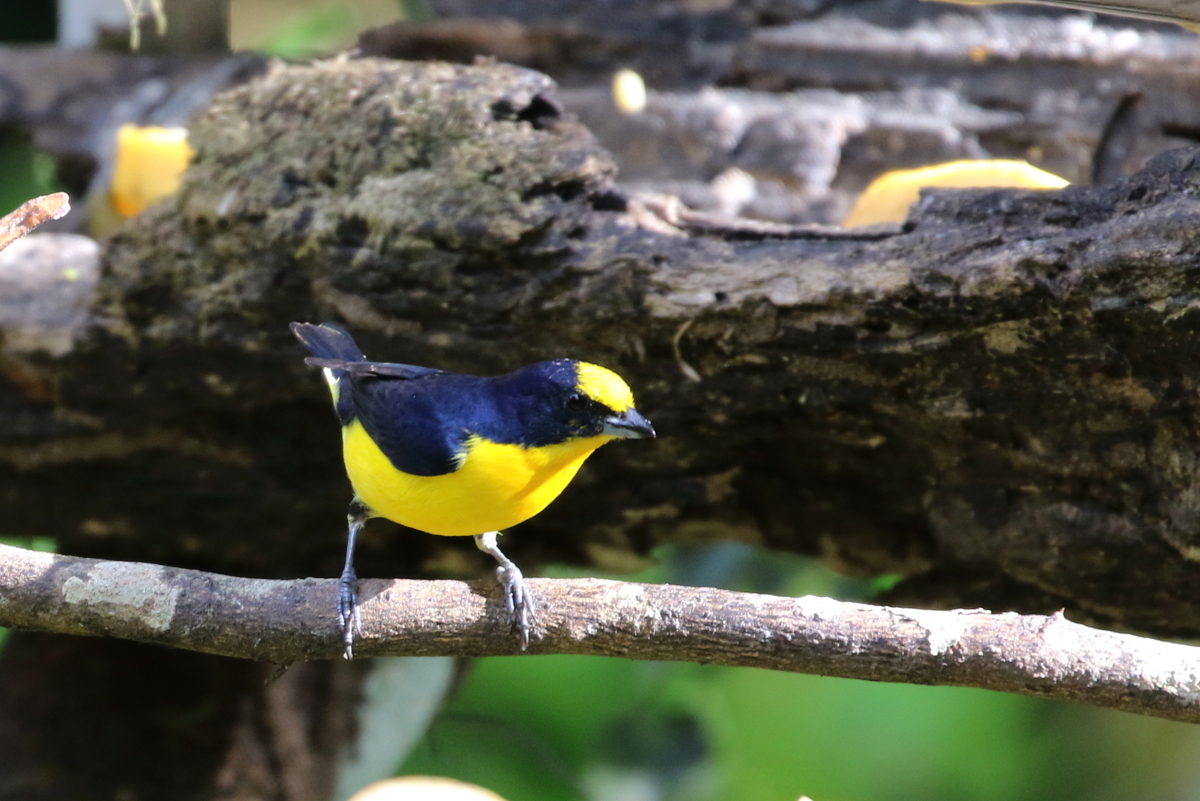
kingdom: Animalia
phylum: Chordata
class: Aves
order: Passeriformes
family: Fringillidae
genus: Euphonia
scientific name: Euphonia laniirostris
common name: Thick-billed euphonia
